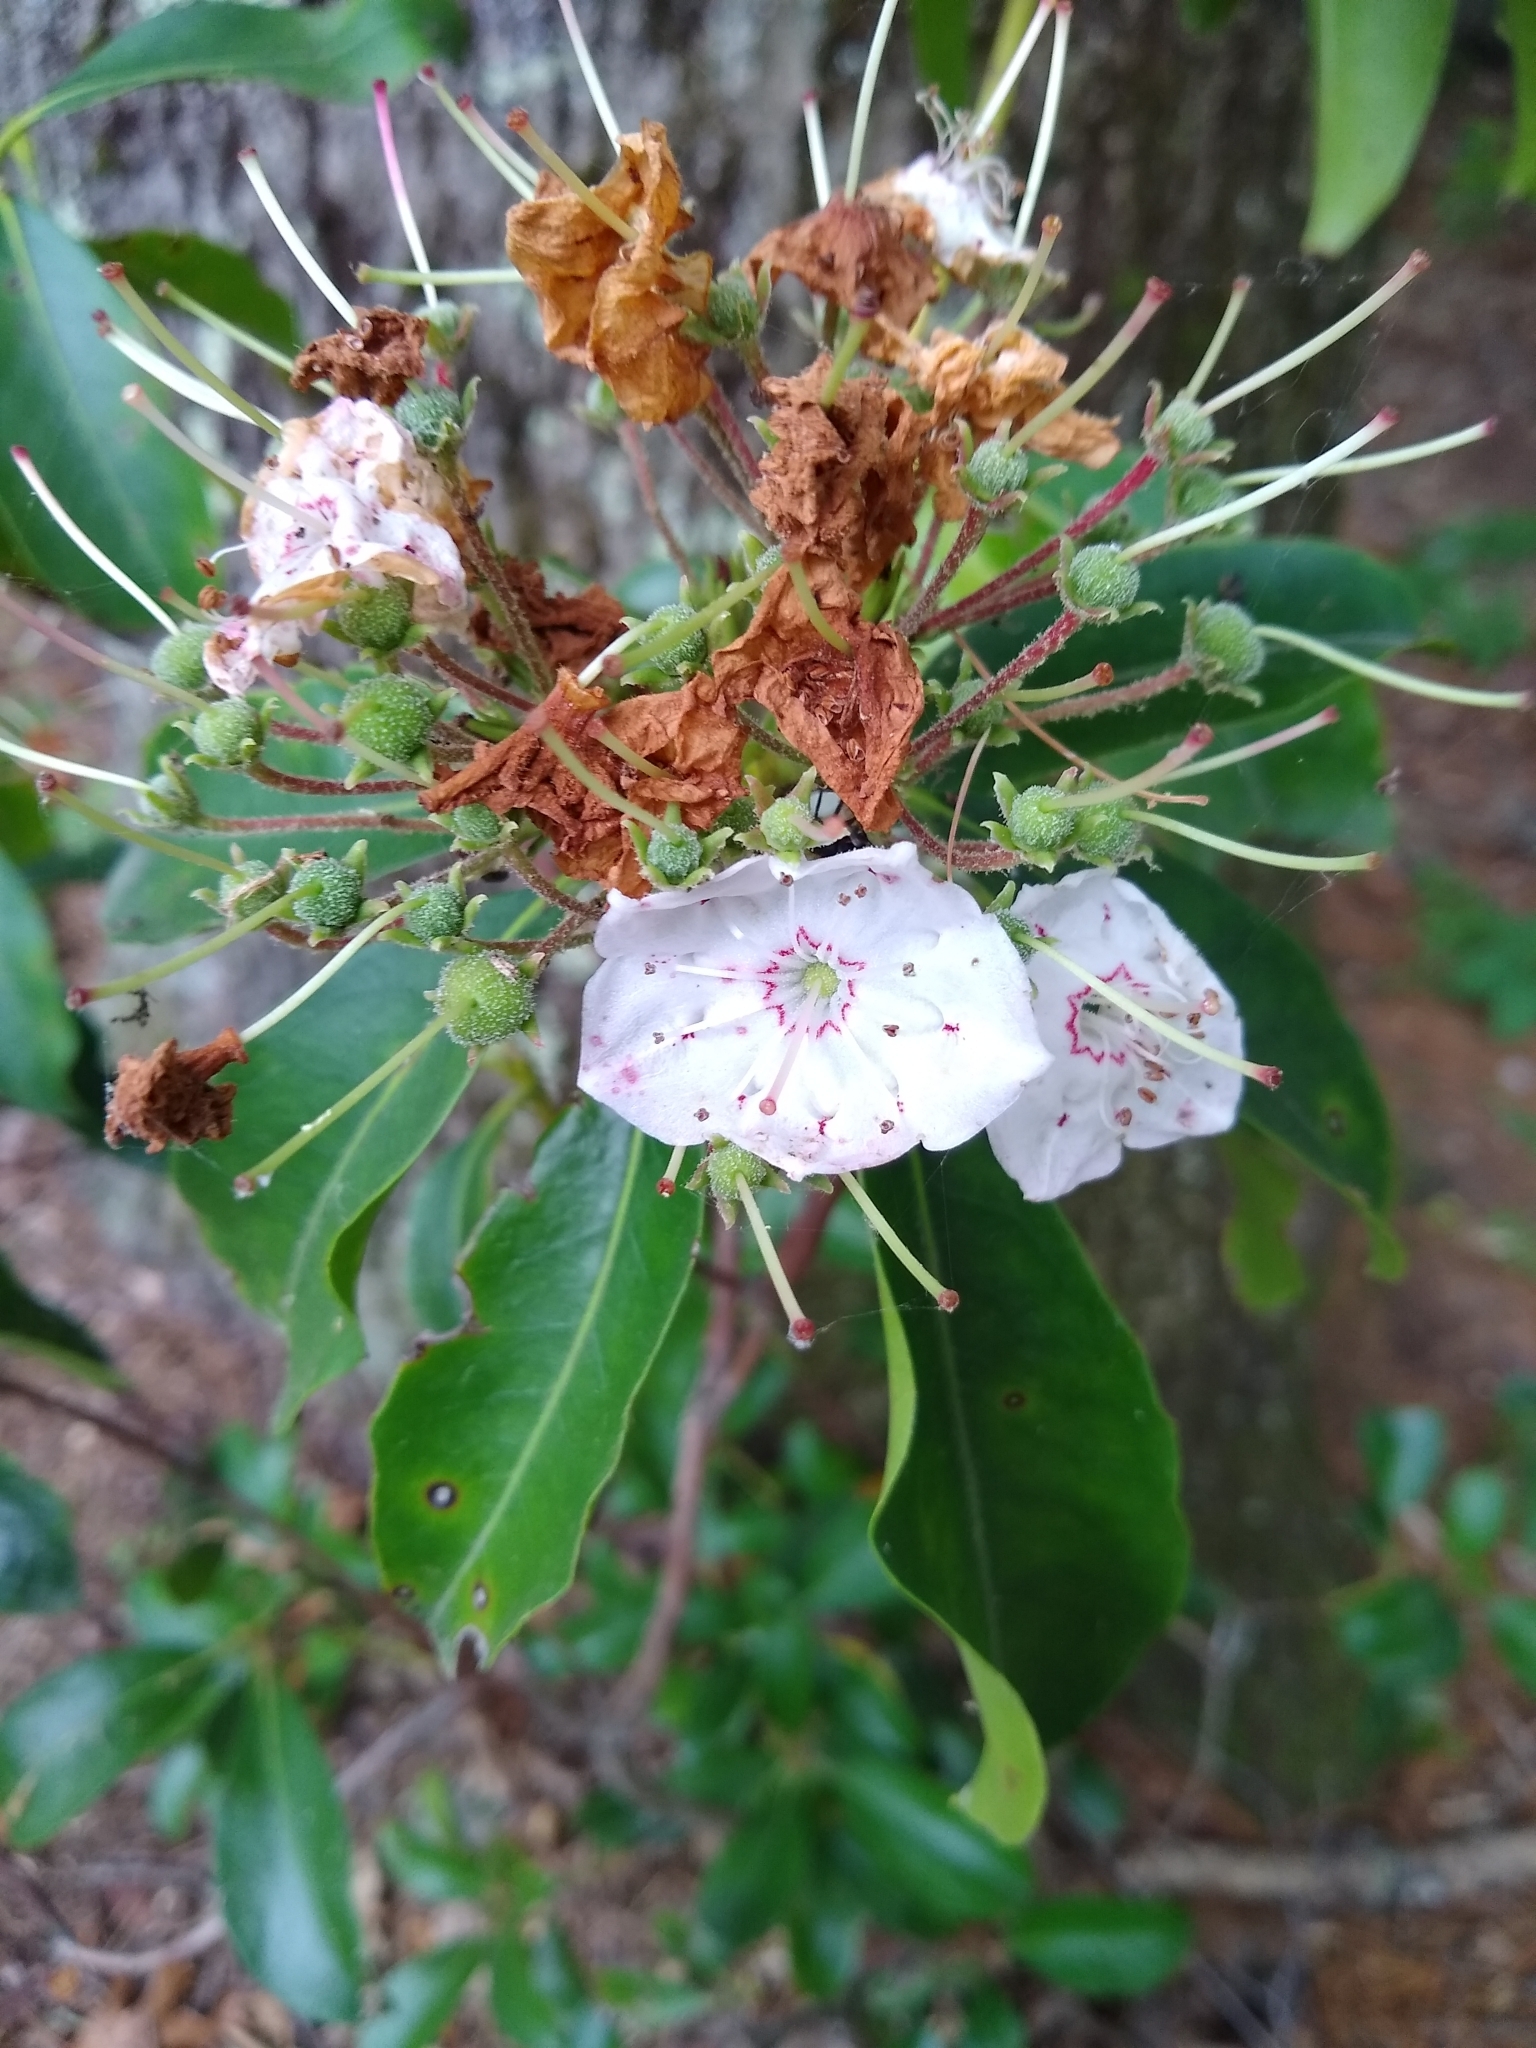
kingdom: Plantae
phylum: Tracheophyta
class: Magnoliopsida
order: Ericales
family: Ericaceae
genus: Kalmia
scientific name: Kalmia latifolia
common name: Mountain-laurel
